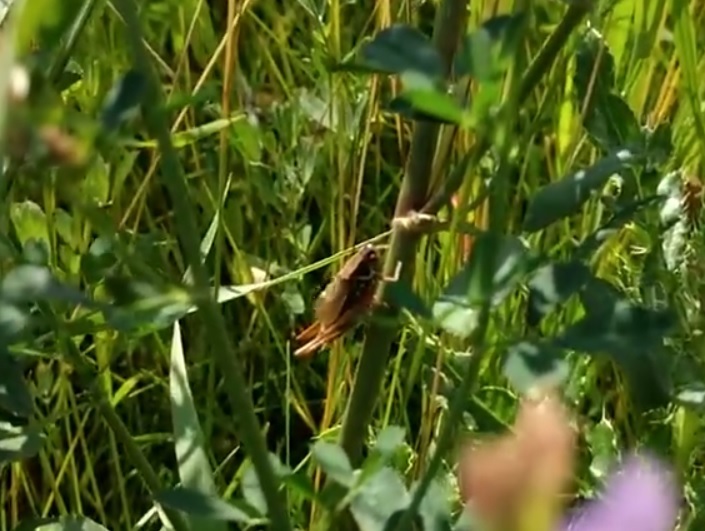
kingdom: Animalia
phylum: Arthropoda
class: Insecta
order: Orthoptera
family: Tettigoniidae
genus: Roeseliana
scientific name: Roeseliana roeselii
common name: Roesel's bush cricket
